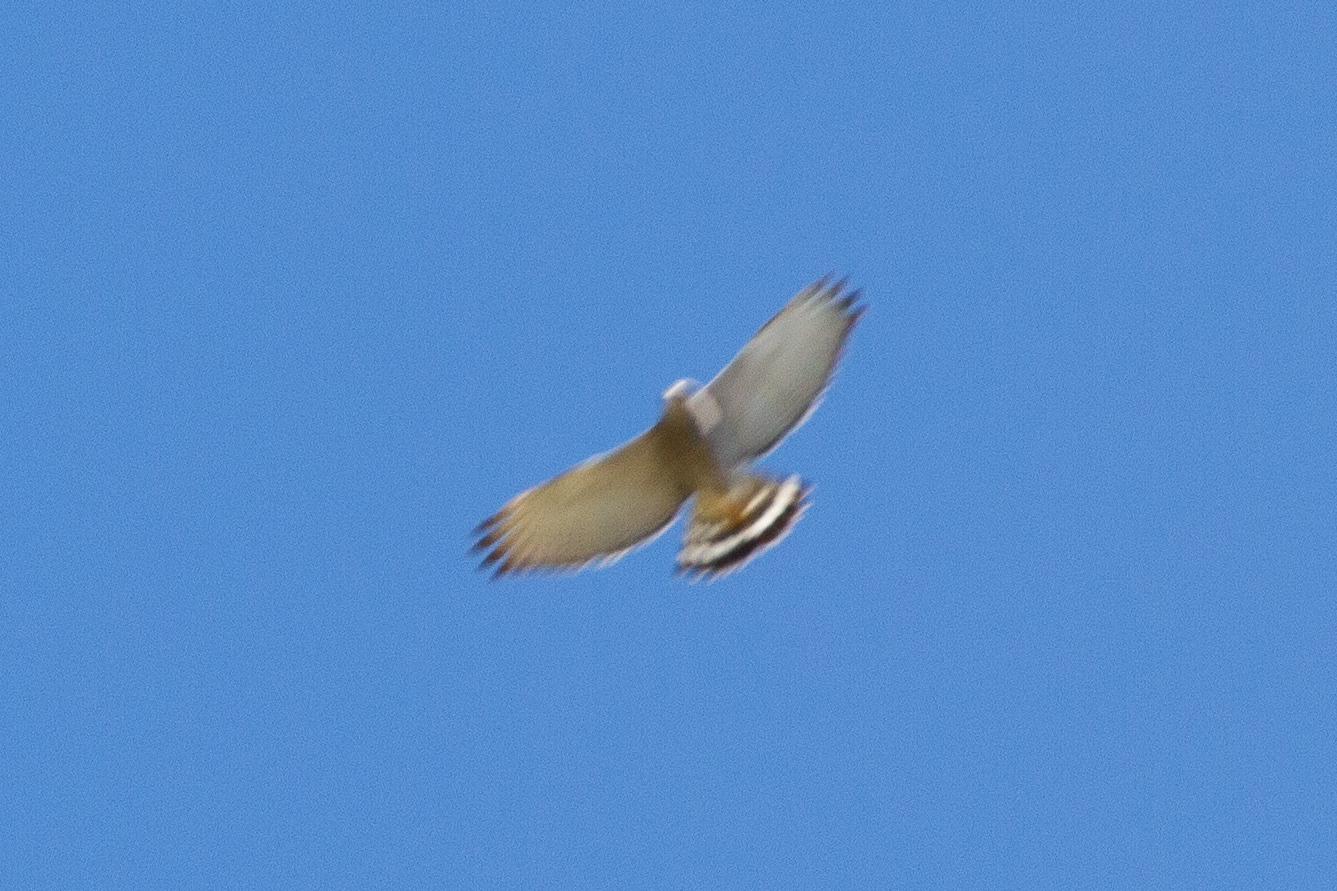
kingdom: Animalia
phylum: Chordata
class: Aves
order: Accipitriformes
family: Accipitridae
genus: Buteo
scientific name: Buteo nitidus
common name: Grey-lined hawk
